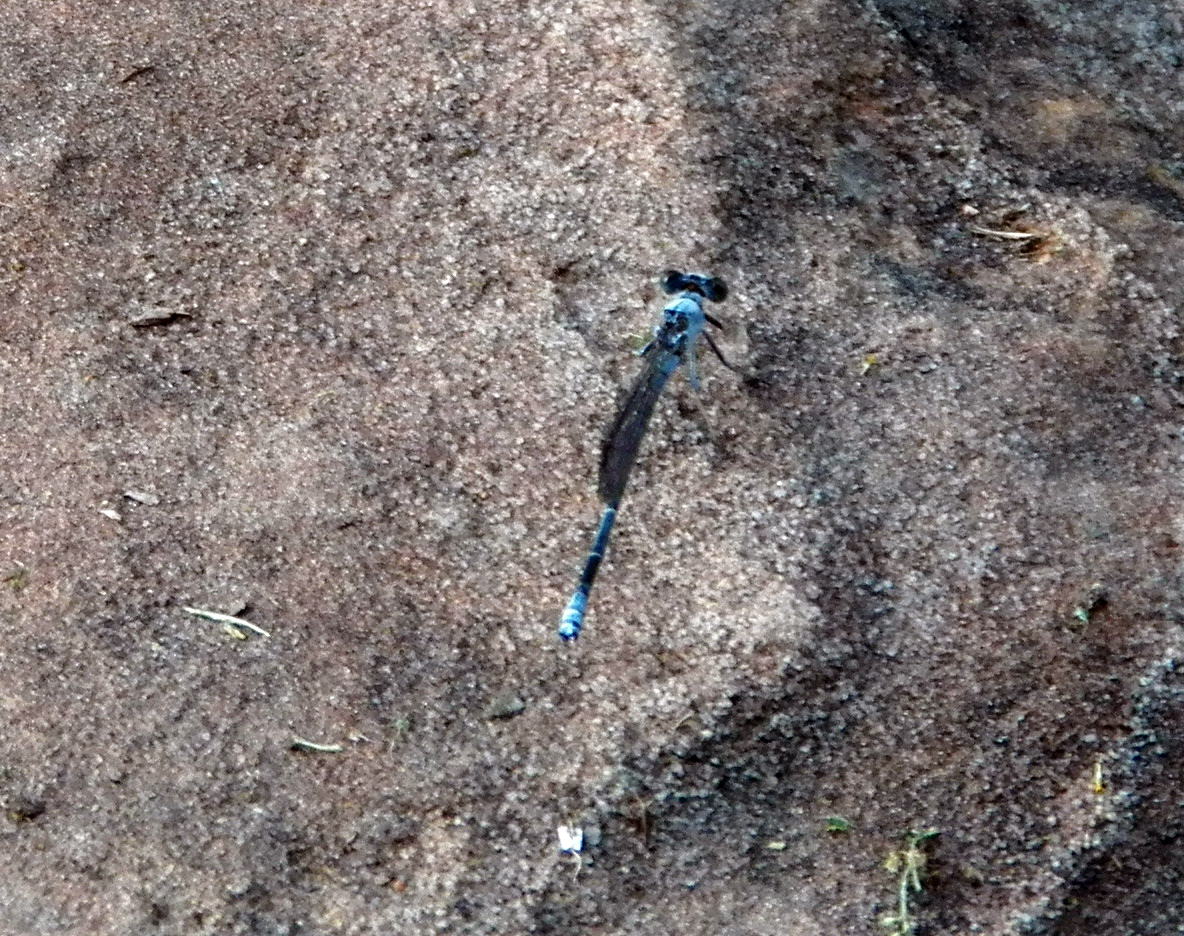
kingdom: Animalia
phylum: Arthropoda
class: Insecta
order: Odonata
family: Coenagrionidae
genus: Argia
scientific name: Argia moesta
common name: Powdered dancer
